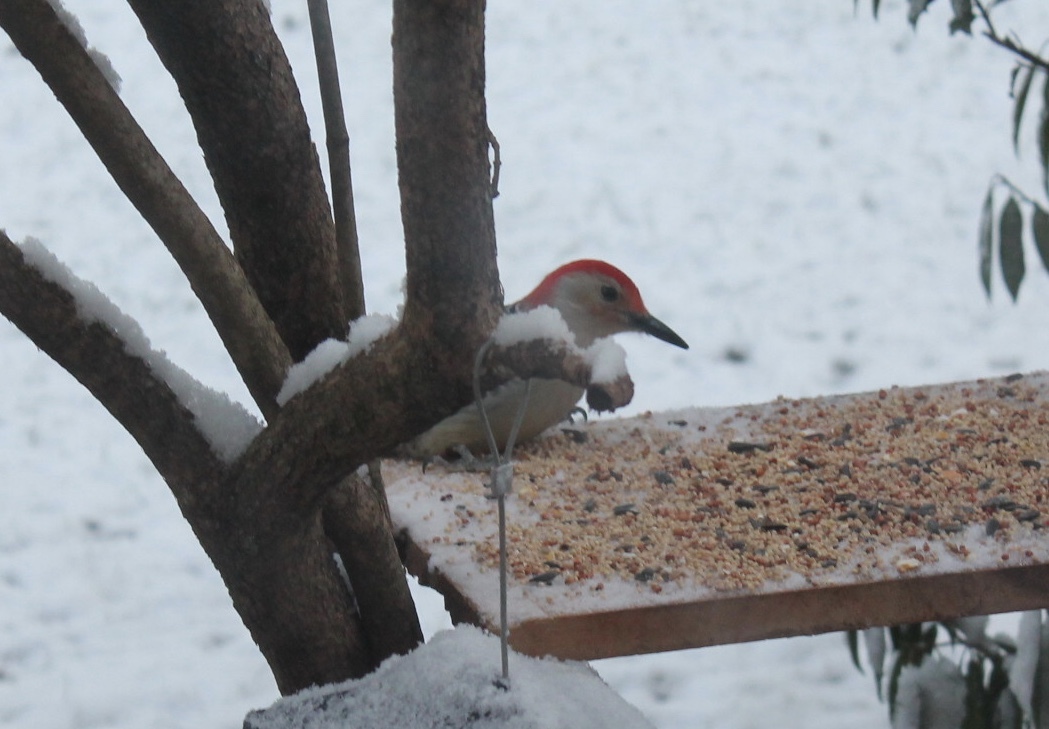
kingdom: Animalia
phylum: Chordata
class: Aves
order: Piciformes
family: Picidae
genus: Melanerpes
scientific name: Melanerpes carolinus
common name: Red-bellied woodpecker
